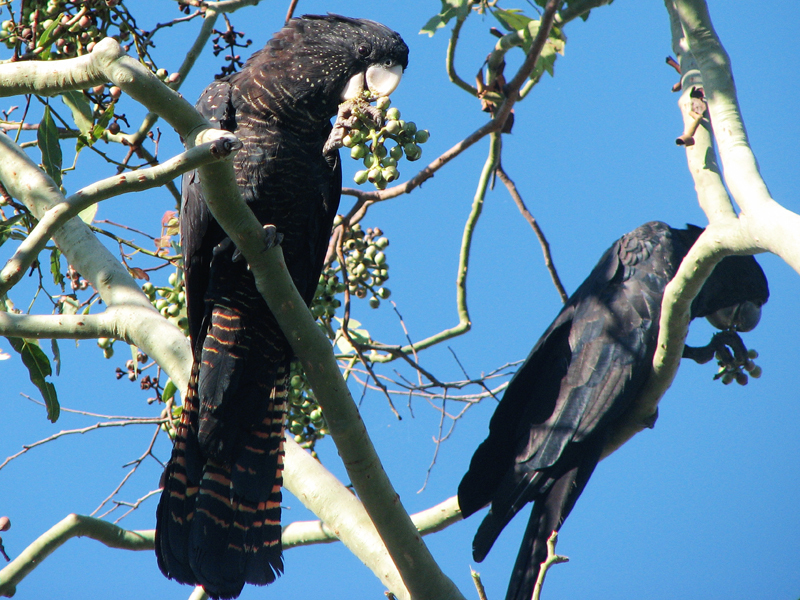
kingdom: Animalia
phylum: Chordata
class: Aves
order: Psittaciformes
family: Psittacidae
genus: Calyptorhynchus
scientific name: Calyptorhynchus banksii
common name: Red-tailed black cockatoo
